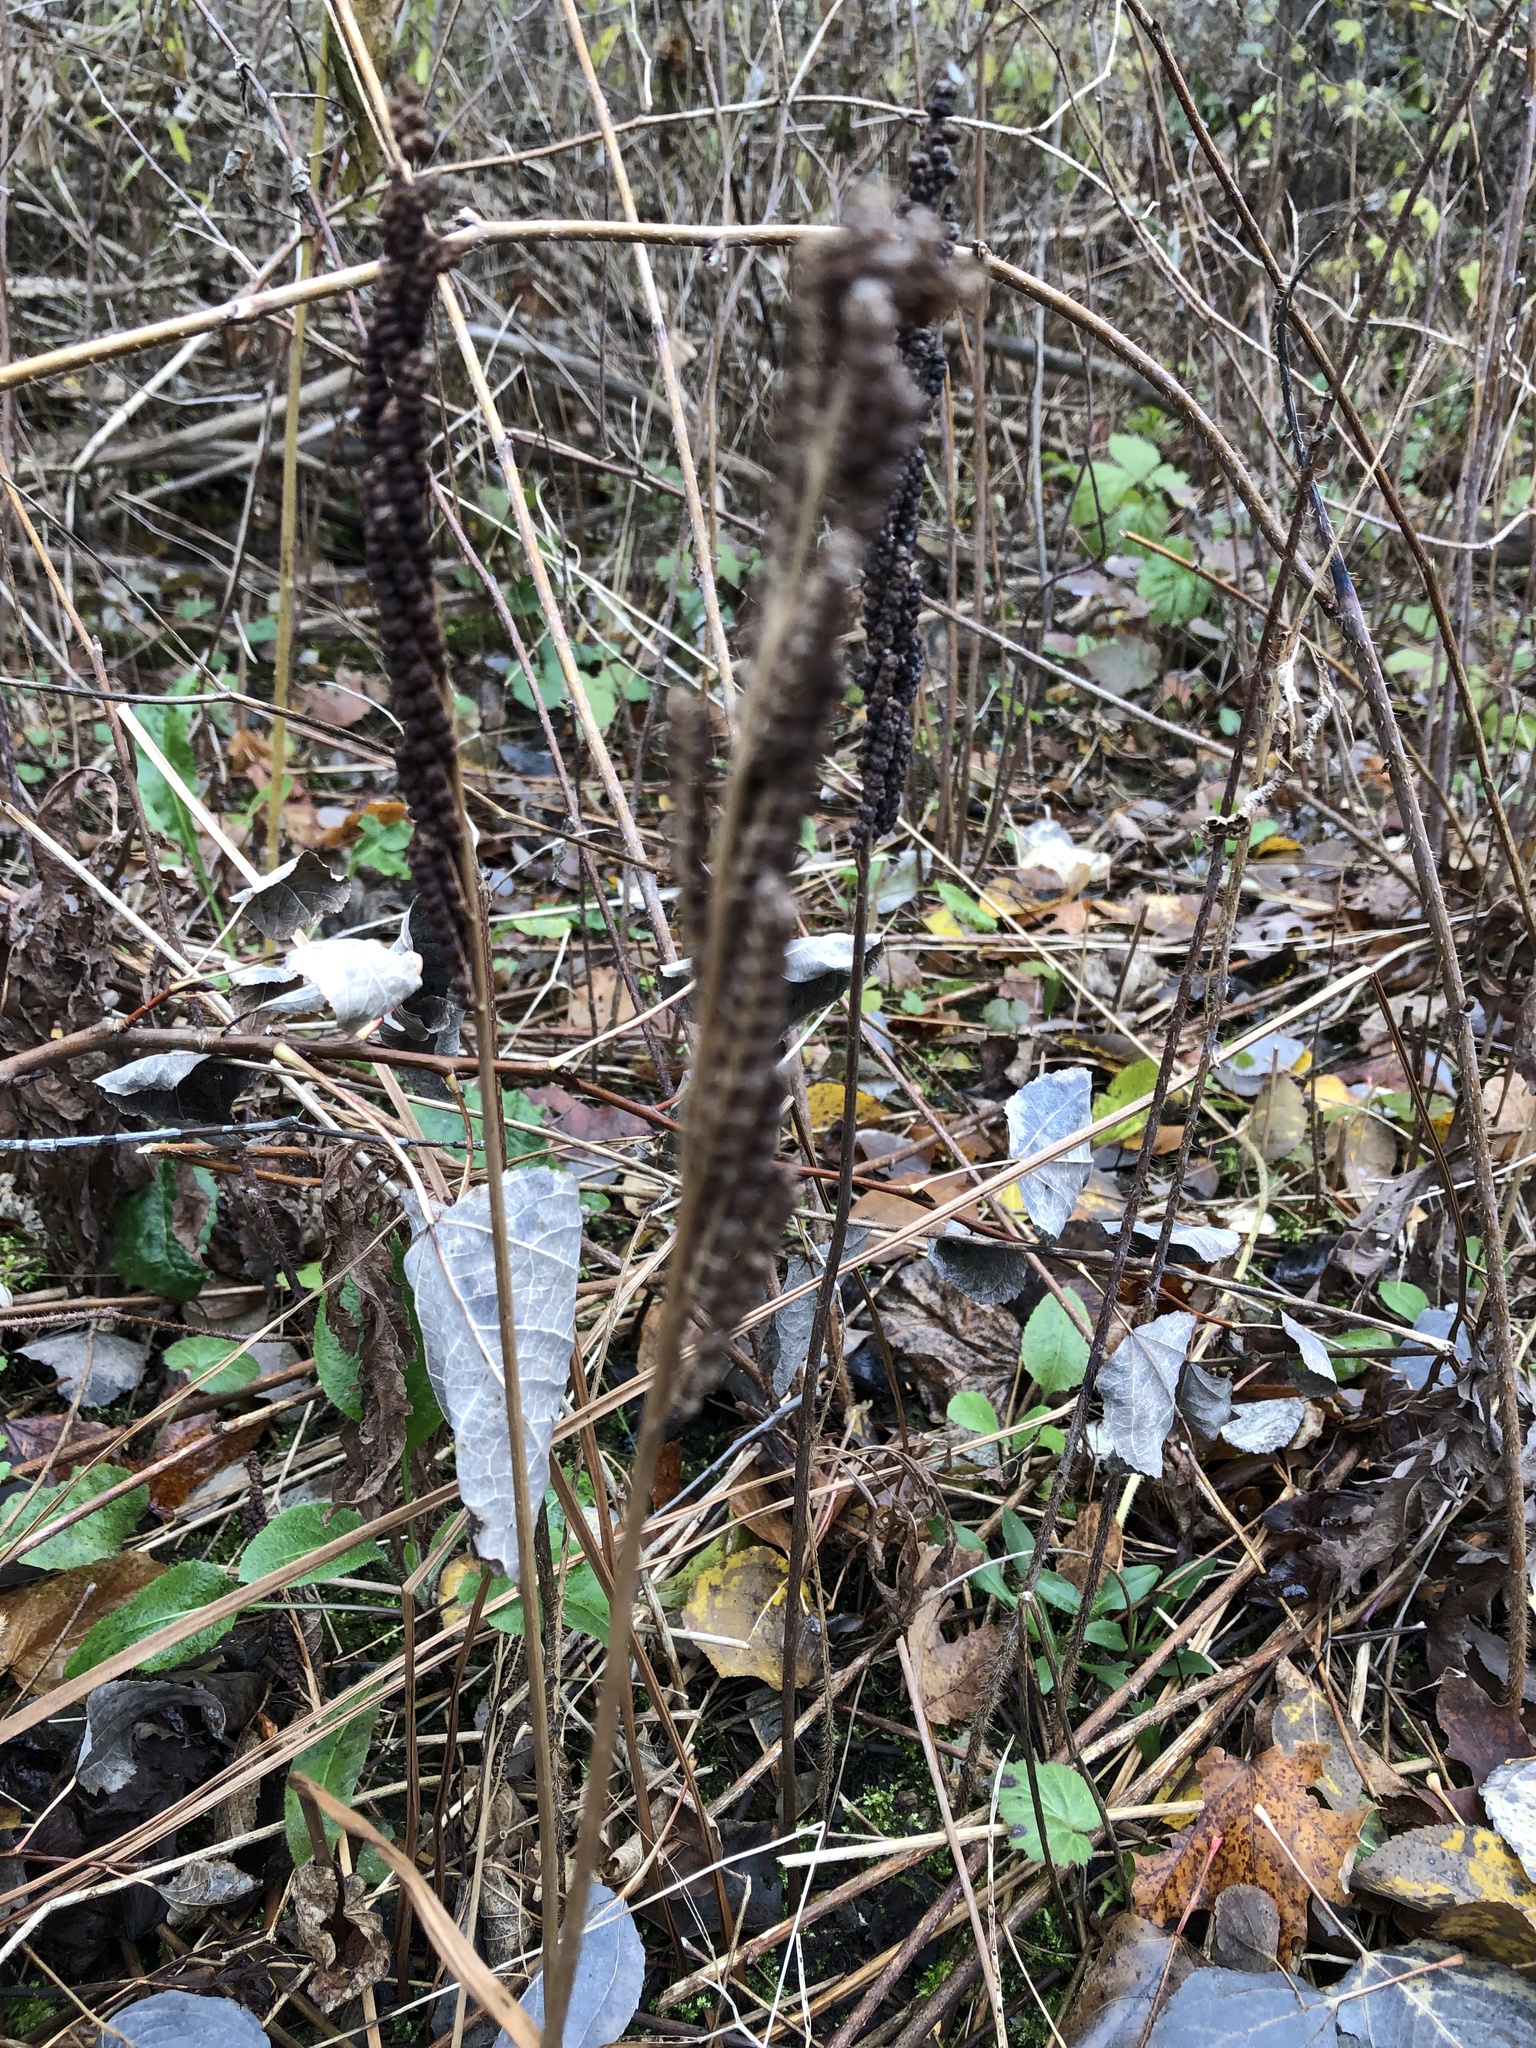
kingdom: Plantae
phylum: Tracheophyta
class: Polypodiopsida
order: Polypodiales
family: Onocleaceae
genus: Onoclea
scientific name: Onoclea sensibilis
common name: Sensitive fern
